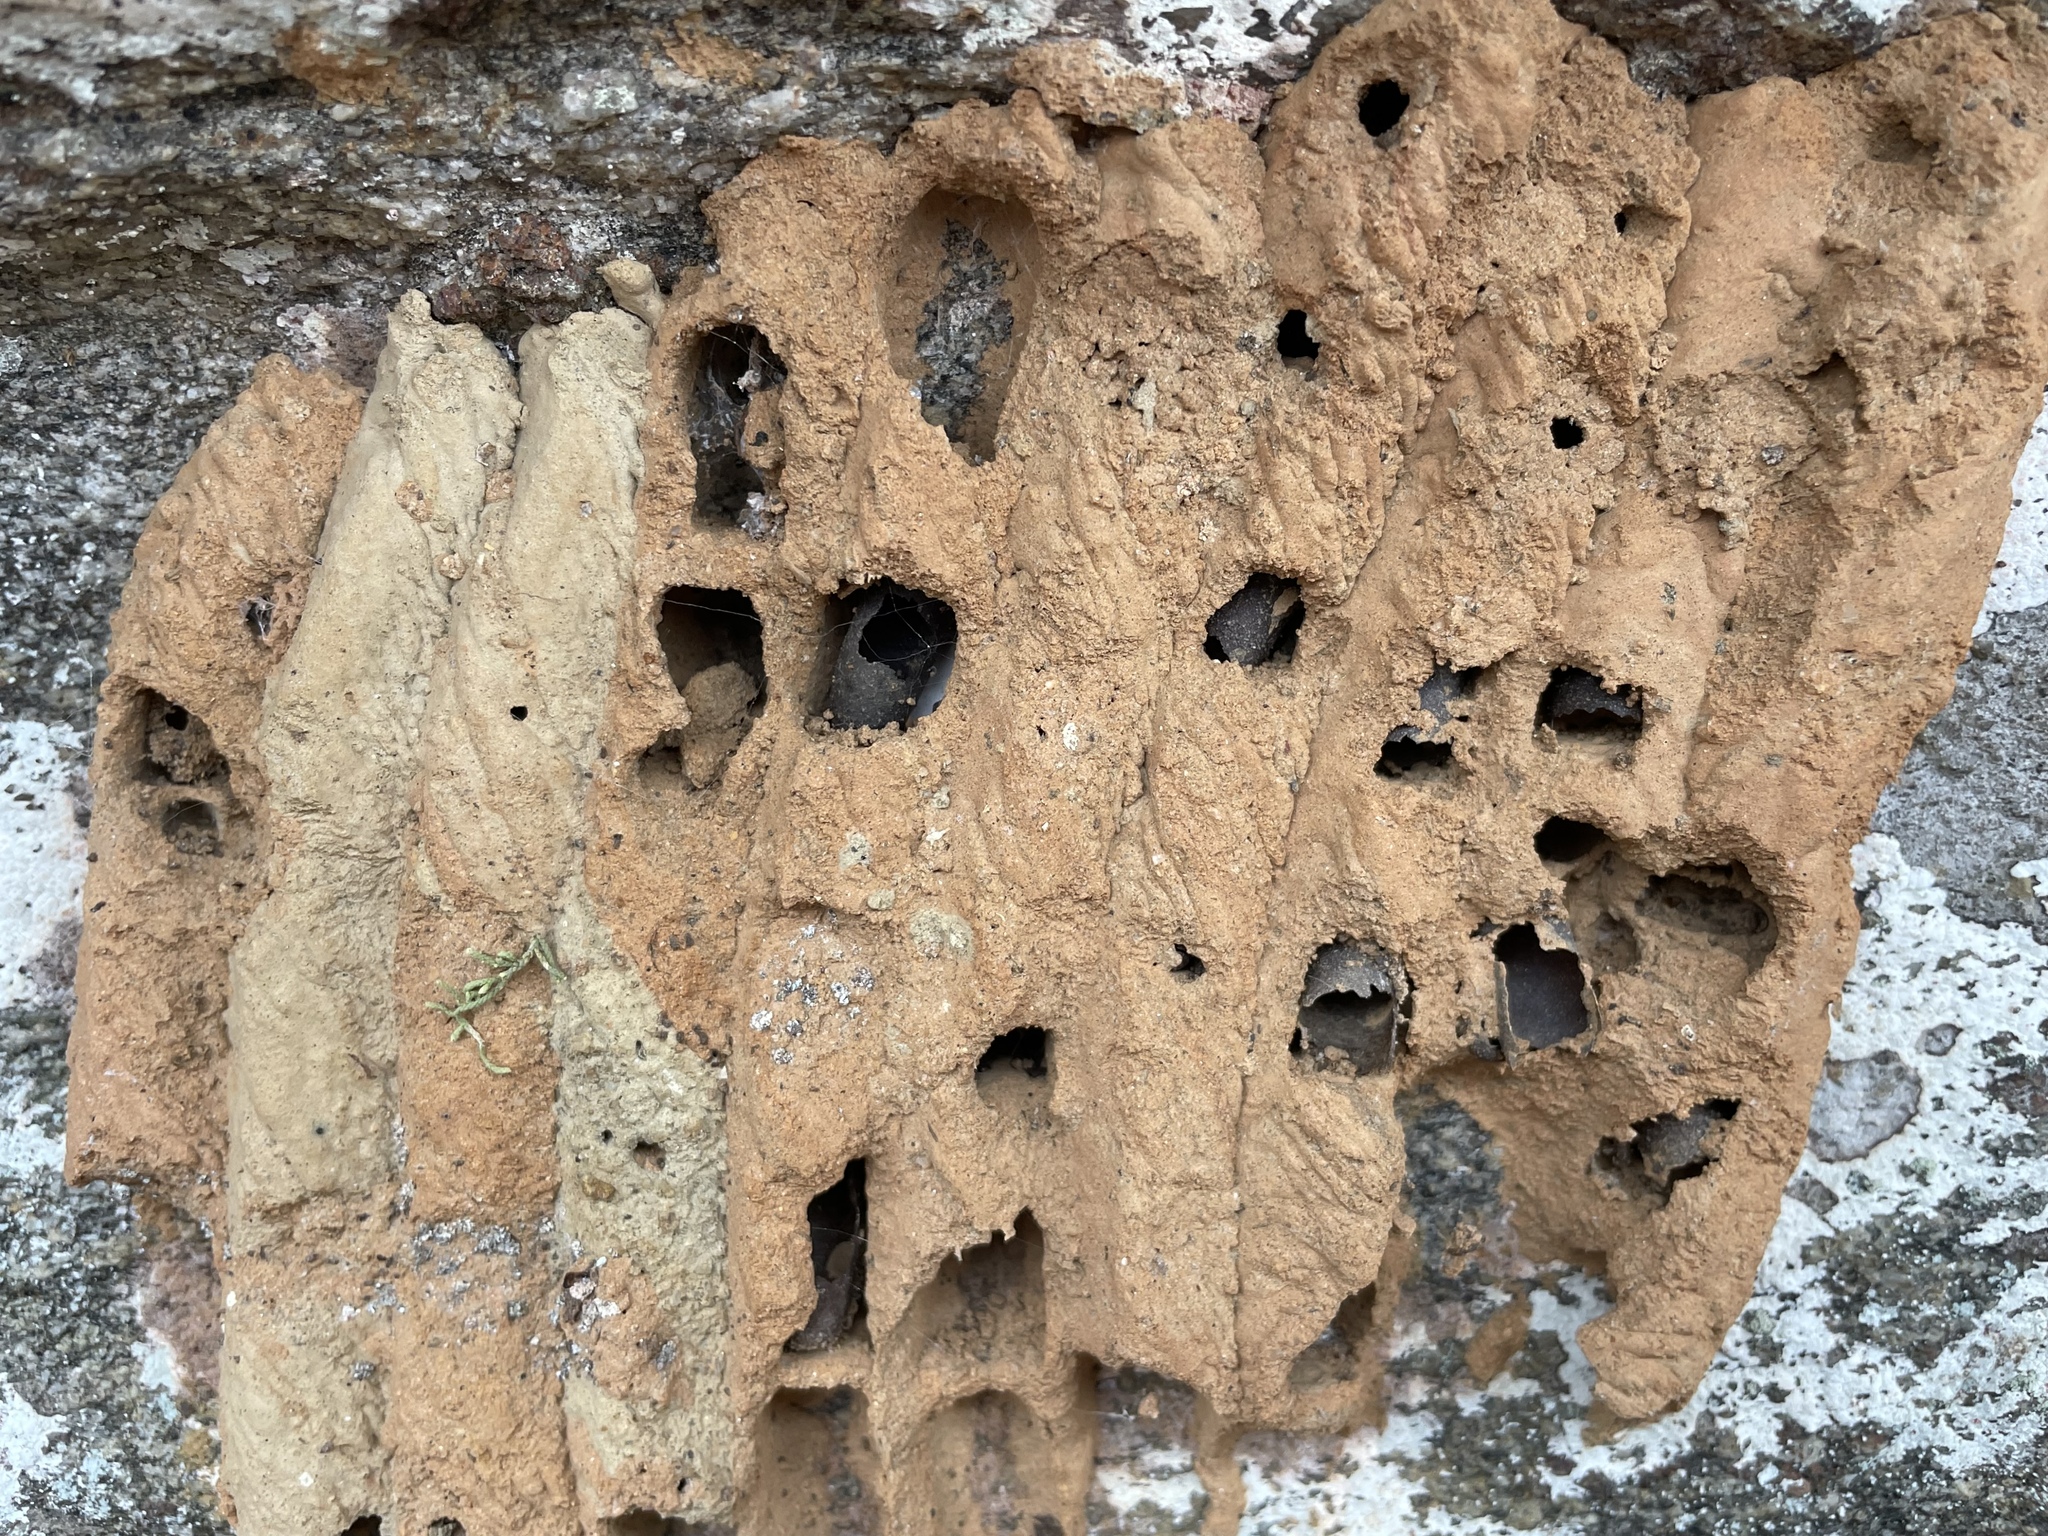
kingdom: Animalia
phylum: Arthropoda
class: Insecta
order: Hymenoptera
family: Crabronidae
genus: Trypoxylon
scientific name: Trypoxylon politum
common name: Organ-pipe mud-dauber wasp
